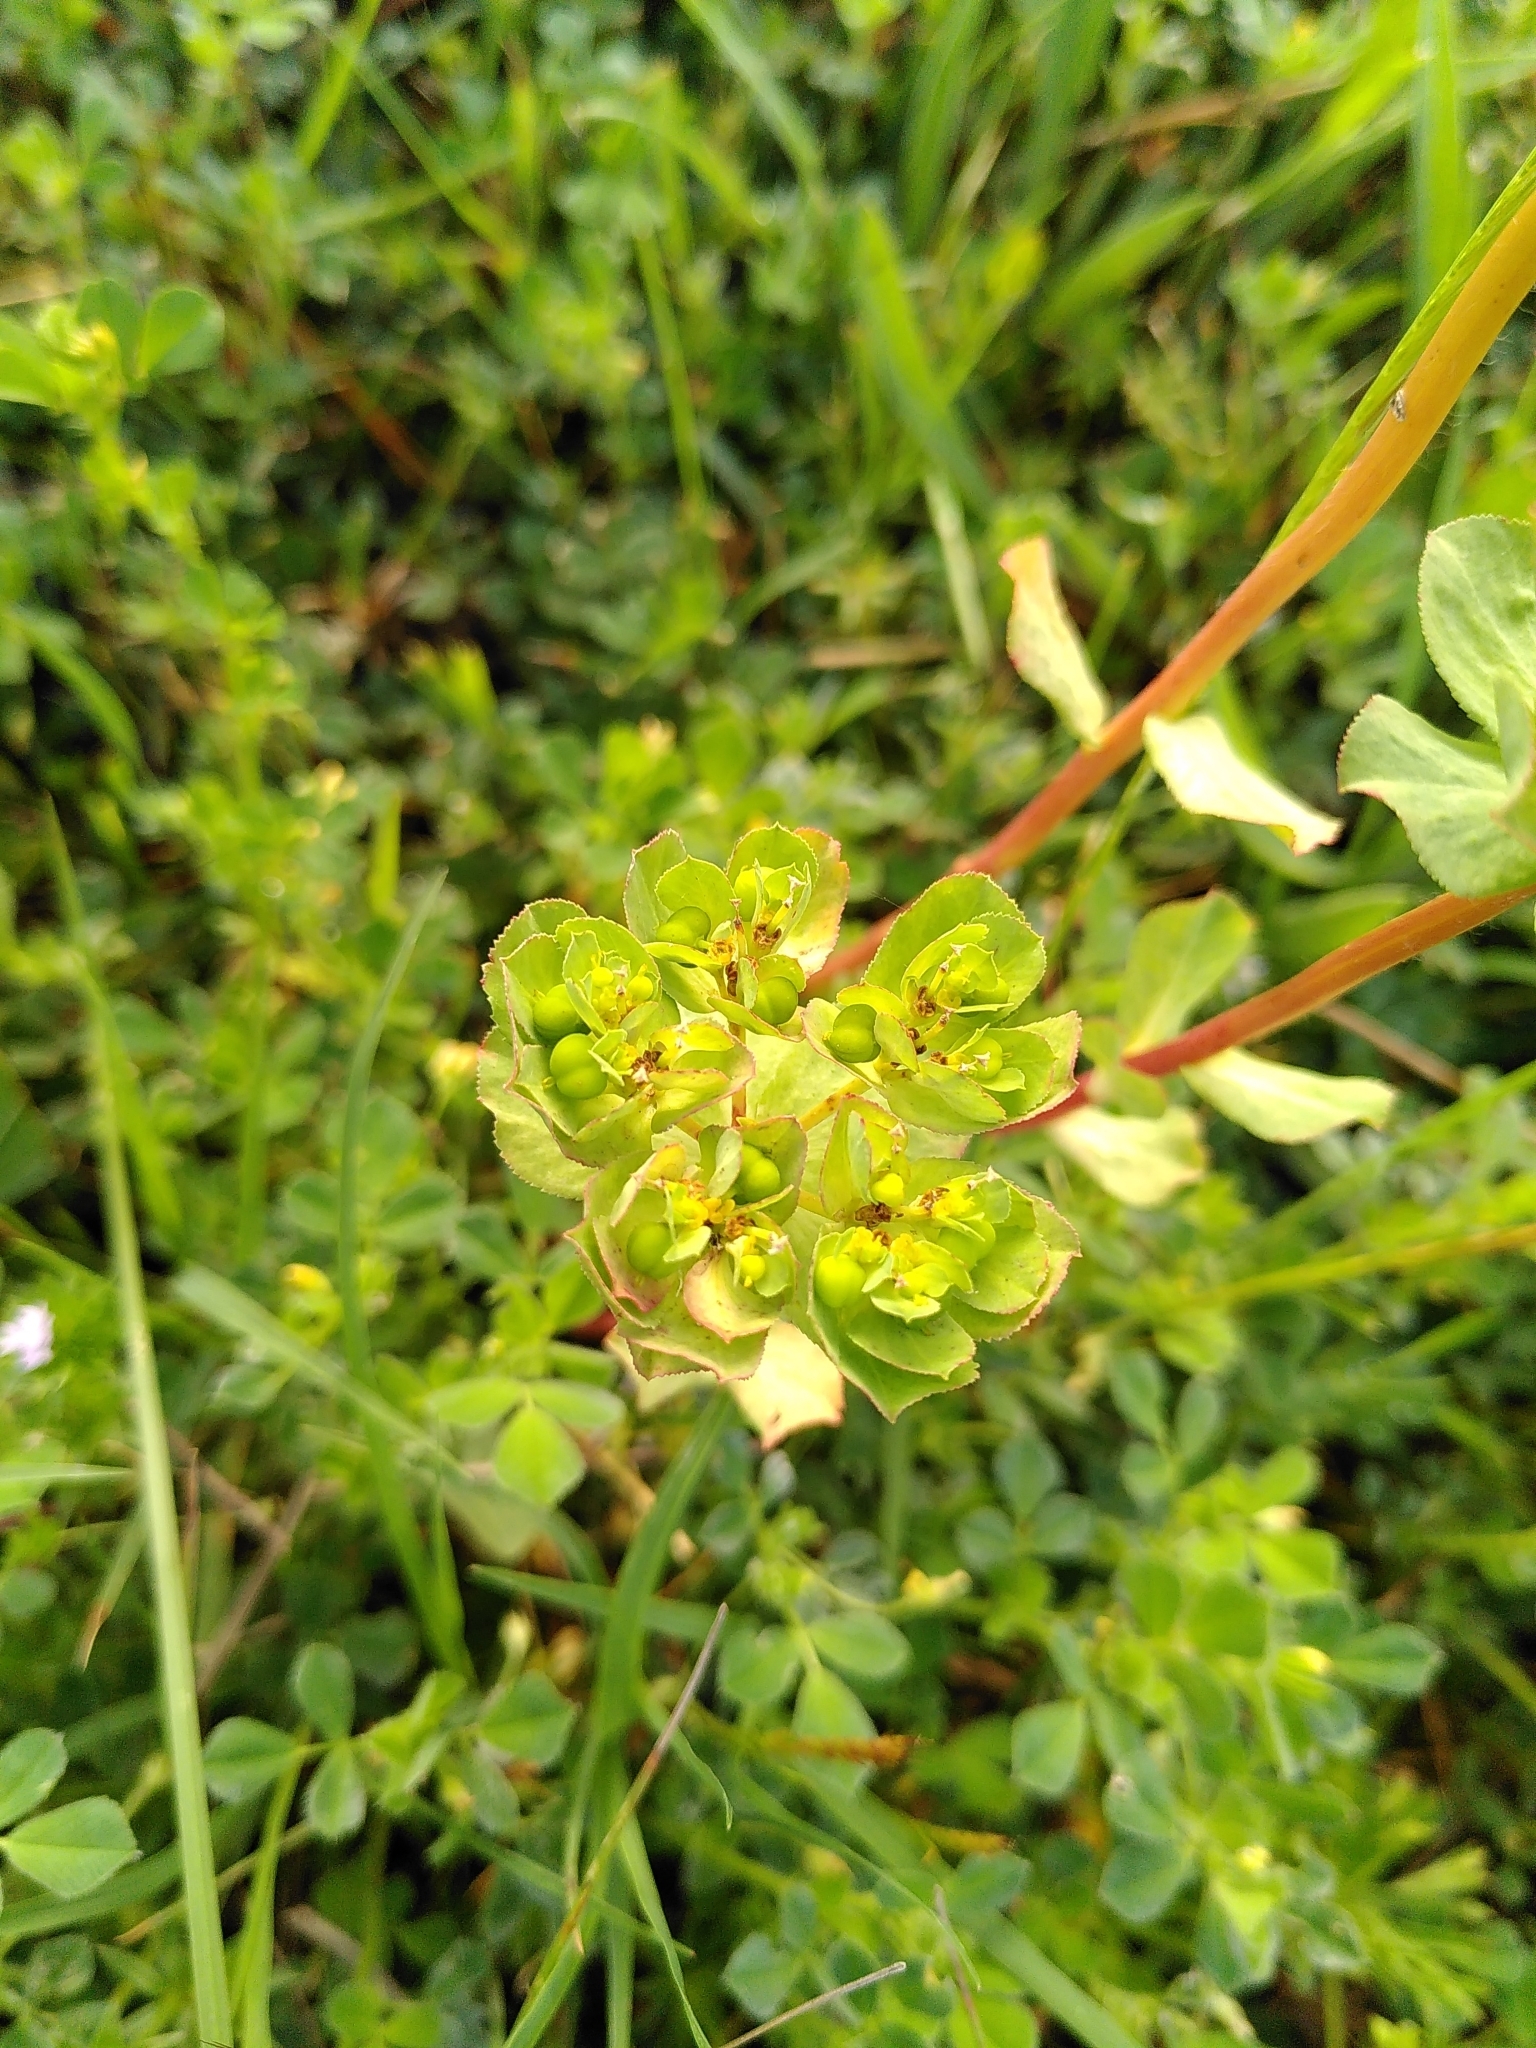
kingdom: Plantae
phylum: Tracheophyta
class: Magnoliopsida
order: Malpighiales
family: Euphorbiaceae
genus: Euphorbia
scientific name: Euphorbia helioscopia
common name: Sun spurge
